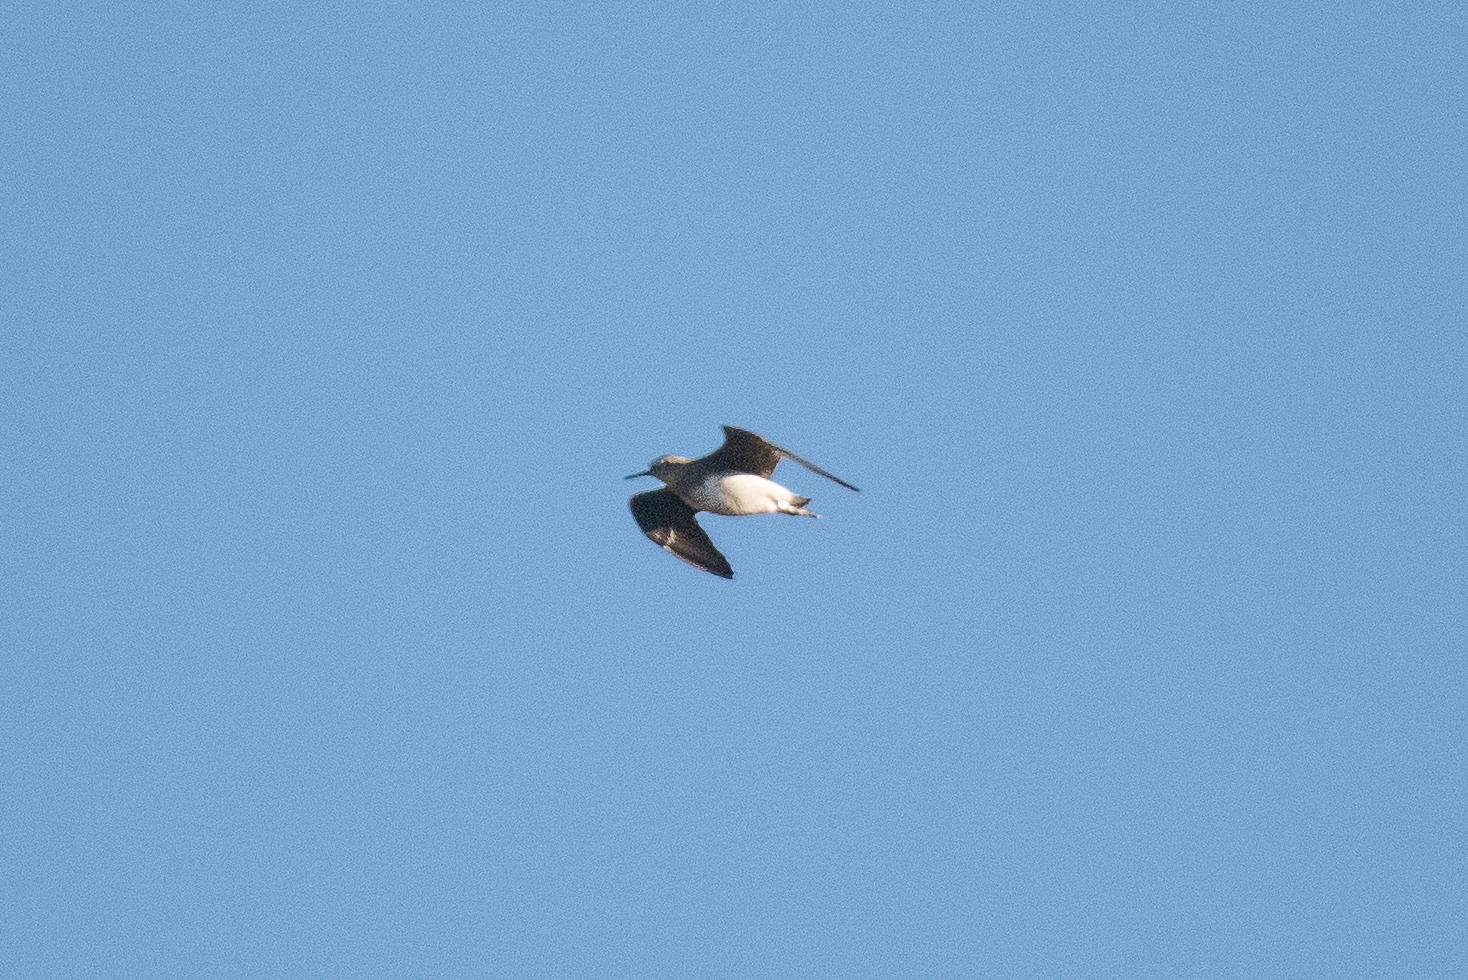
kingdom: Animalia
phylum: Chordata
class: Aves
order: Charadriiformes
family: Scolopacidae
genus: Tringa
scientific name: Tringa ochropus
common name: Green sandpiper
